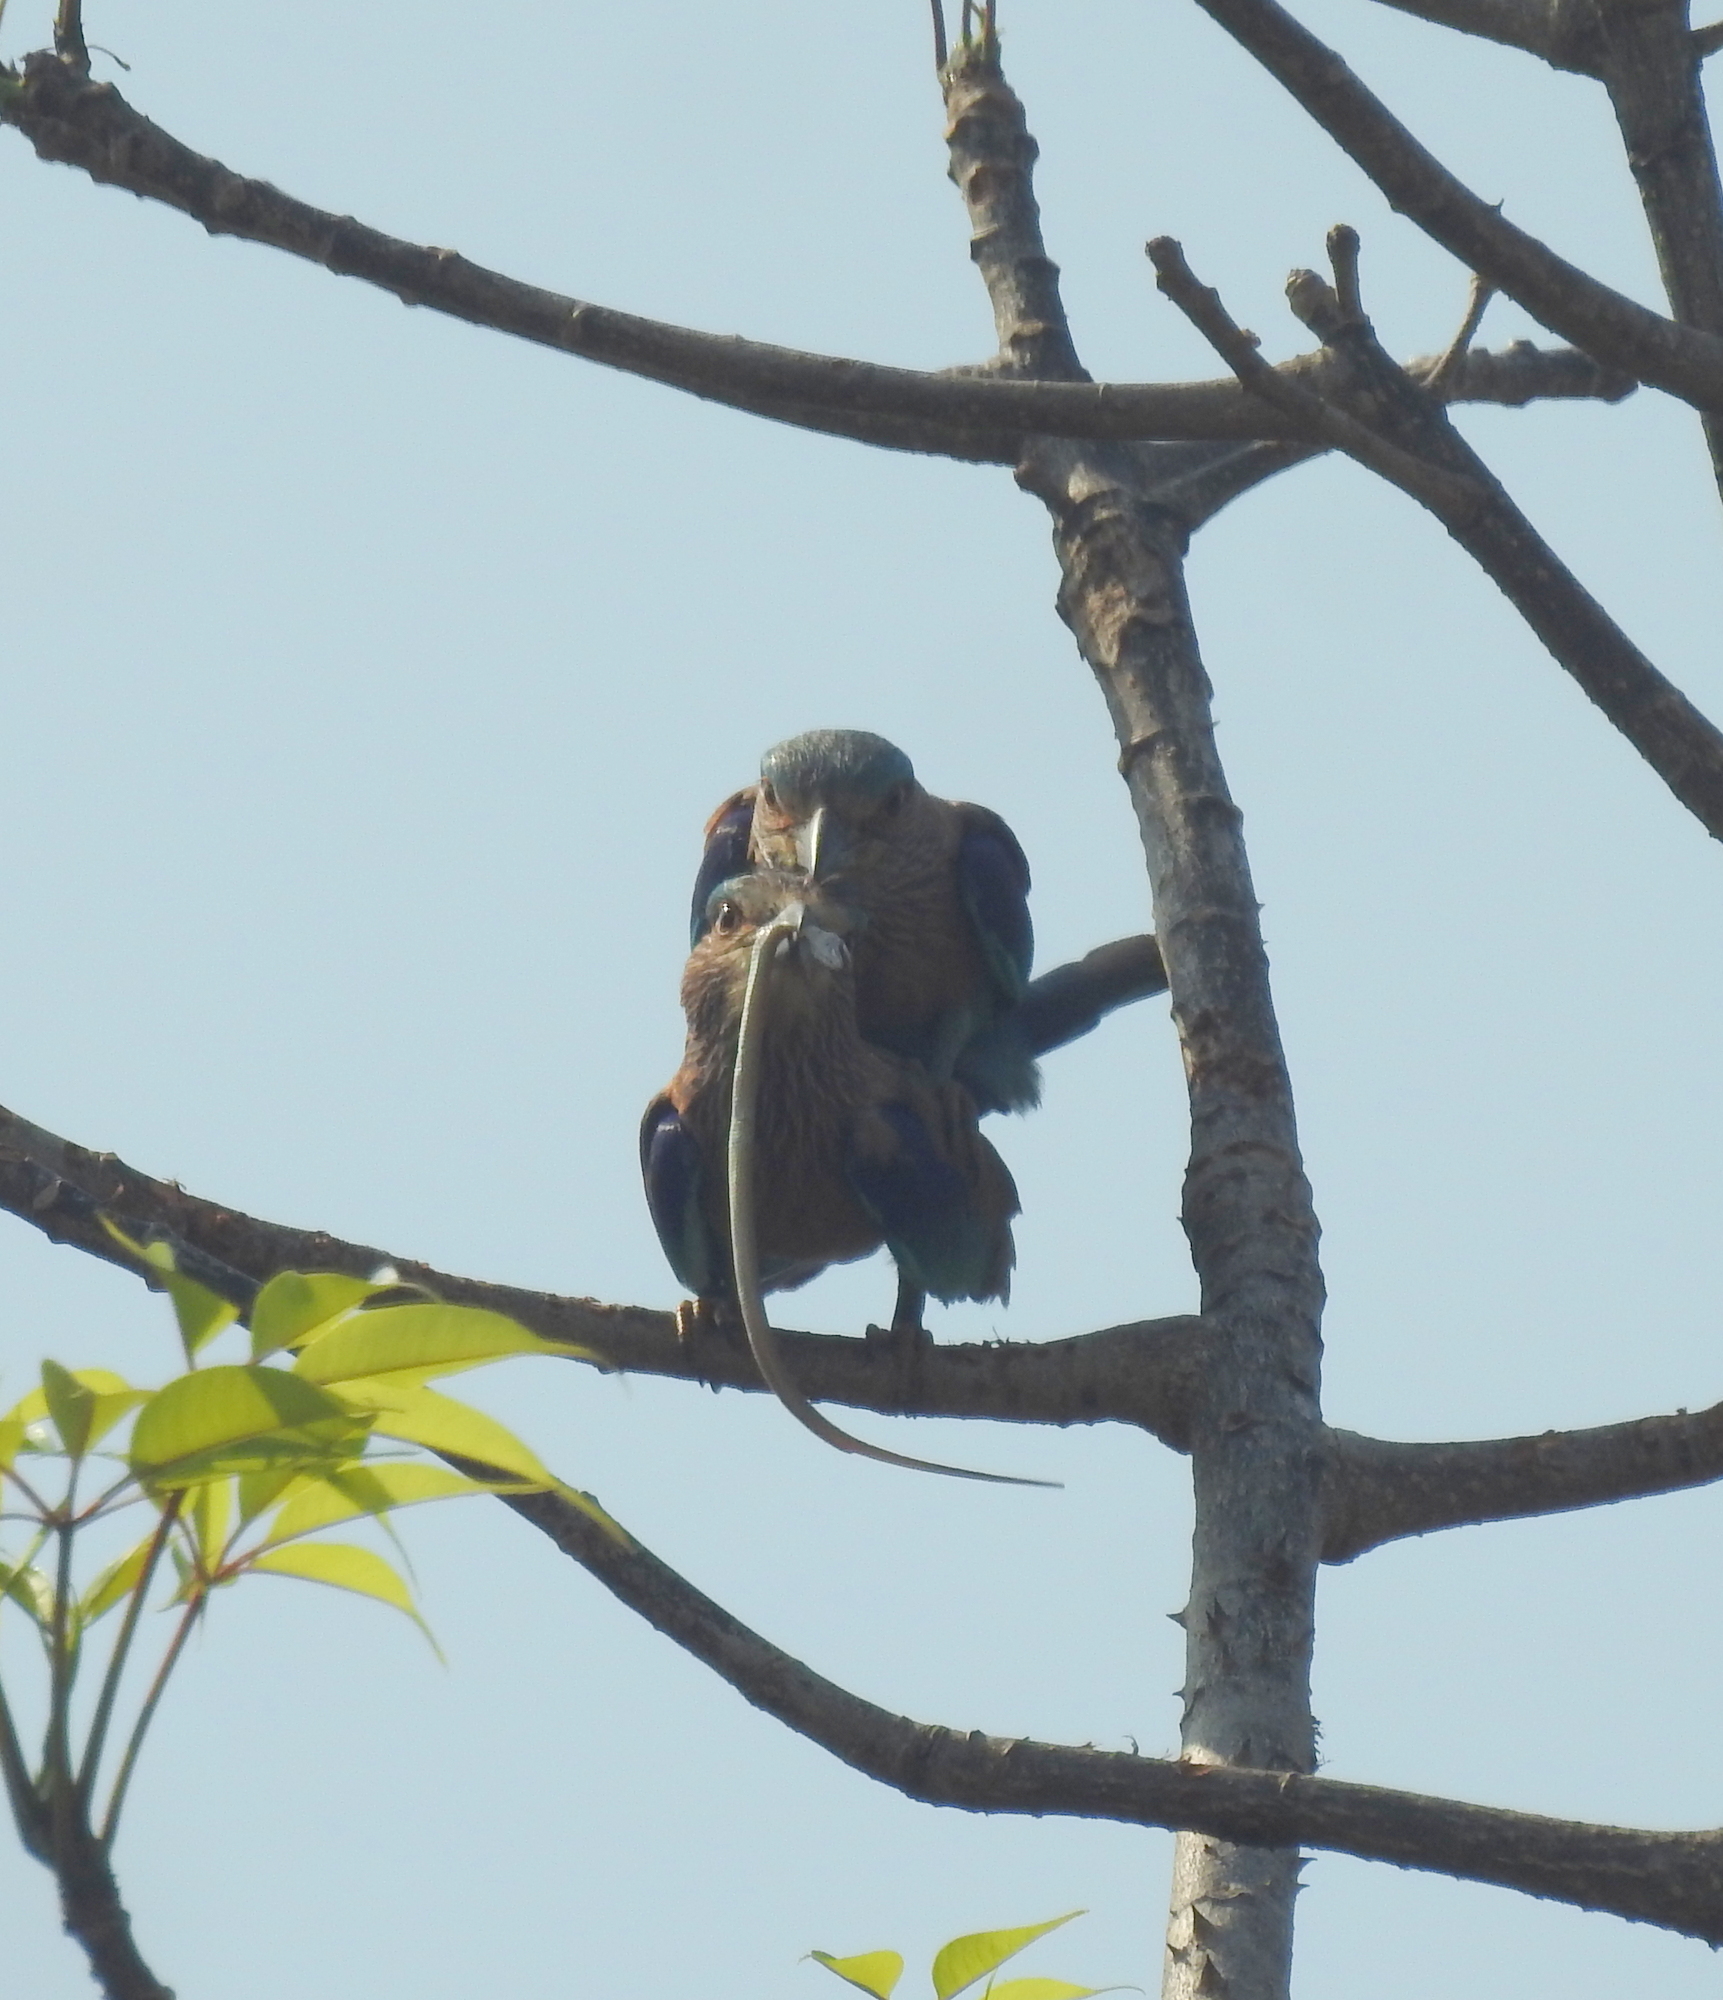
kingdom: Animalia
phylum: Chordata
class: Aves
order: Coraciiformes
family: Coraciidae
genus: Coracias
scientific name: Coracias benghalensis
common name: Indian roller
